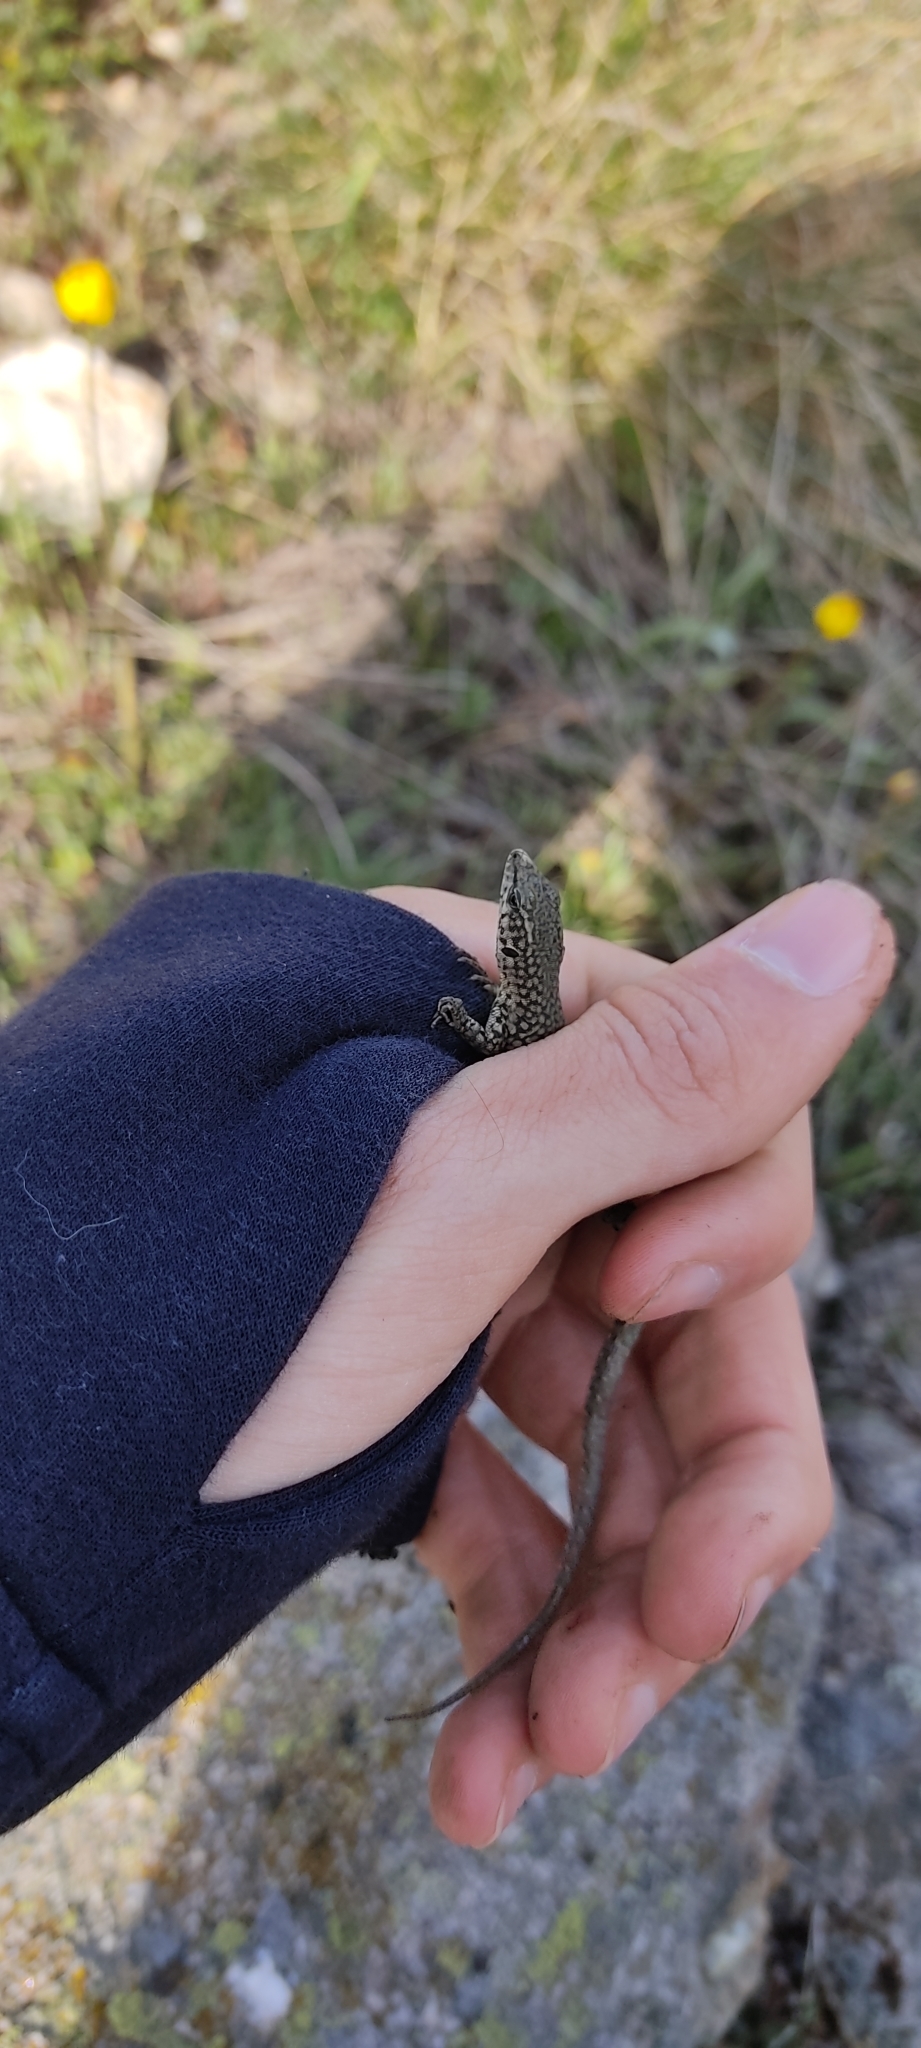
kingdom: Animalia
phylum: Chordata
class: Squamata
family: Lacertidae
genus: Podarcis
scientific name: Podarcis liolepis
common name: Catalonian wall lizard
